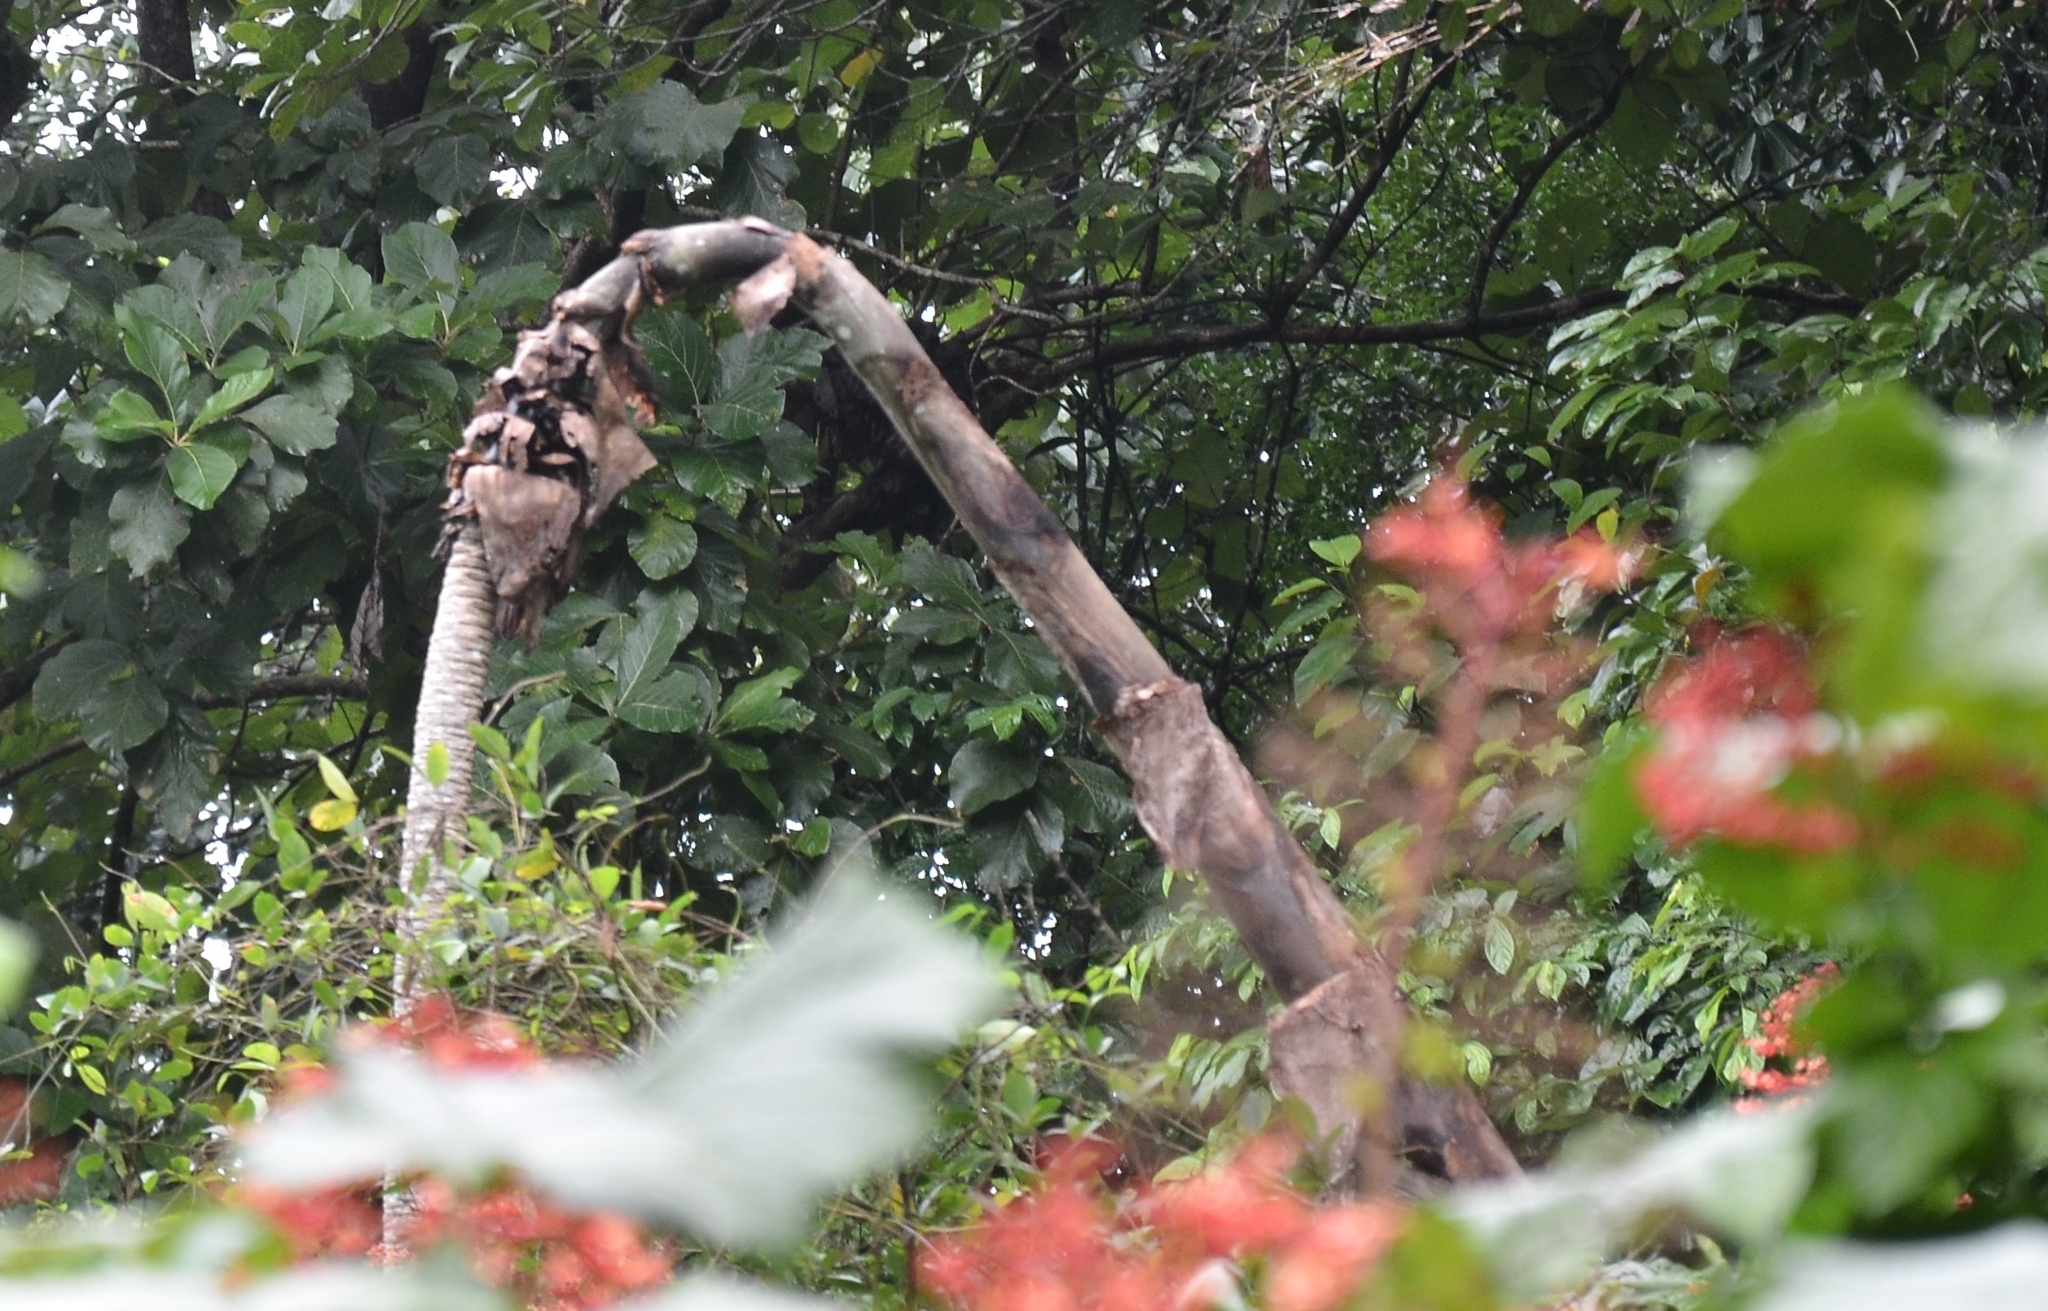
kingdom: Plantae
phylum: Tracheophyta
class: Liliopsida
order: Zingiberales
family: Musaceae
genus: Ensete
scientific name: Ensete superbum
